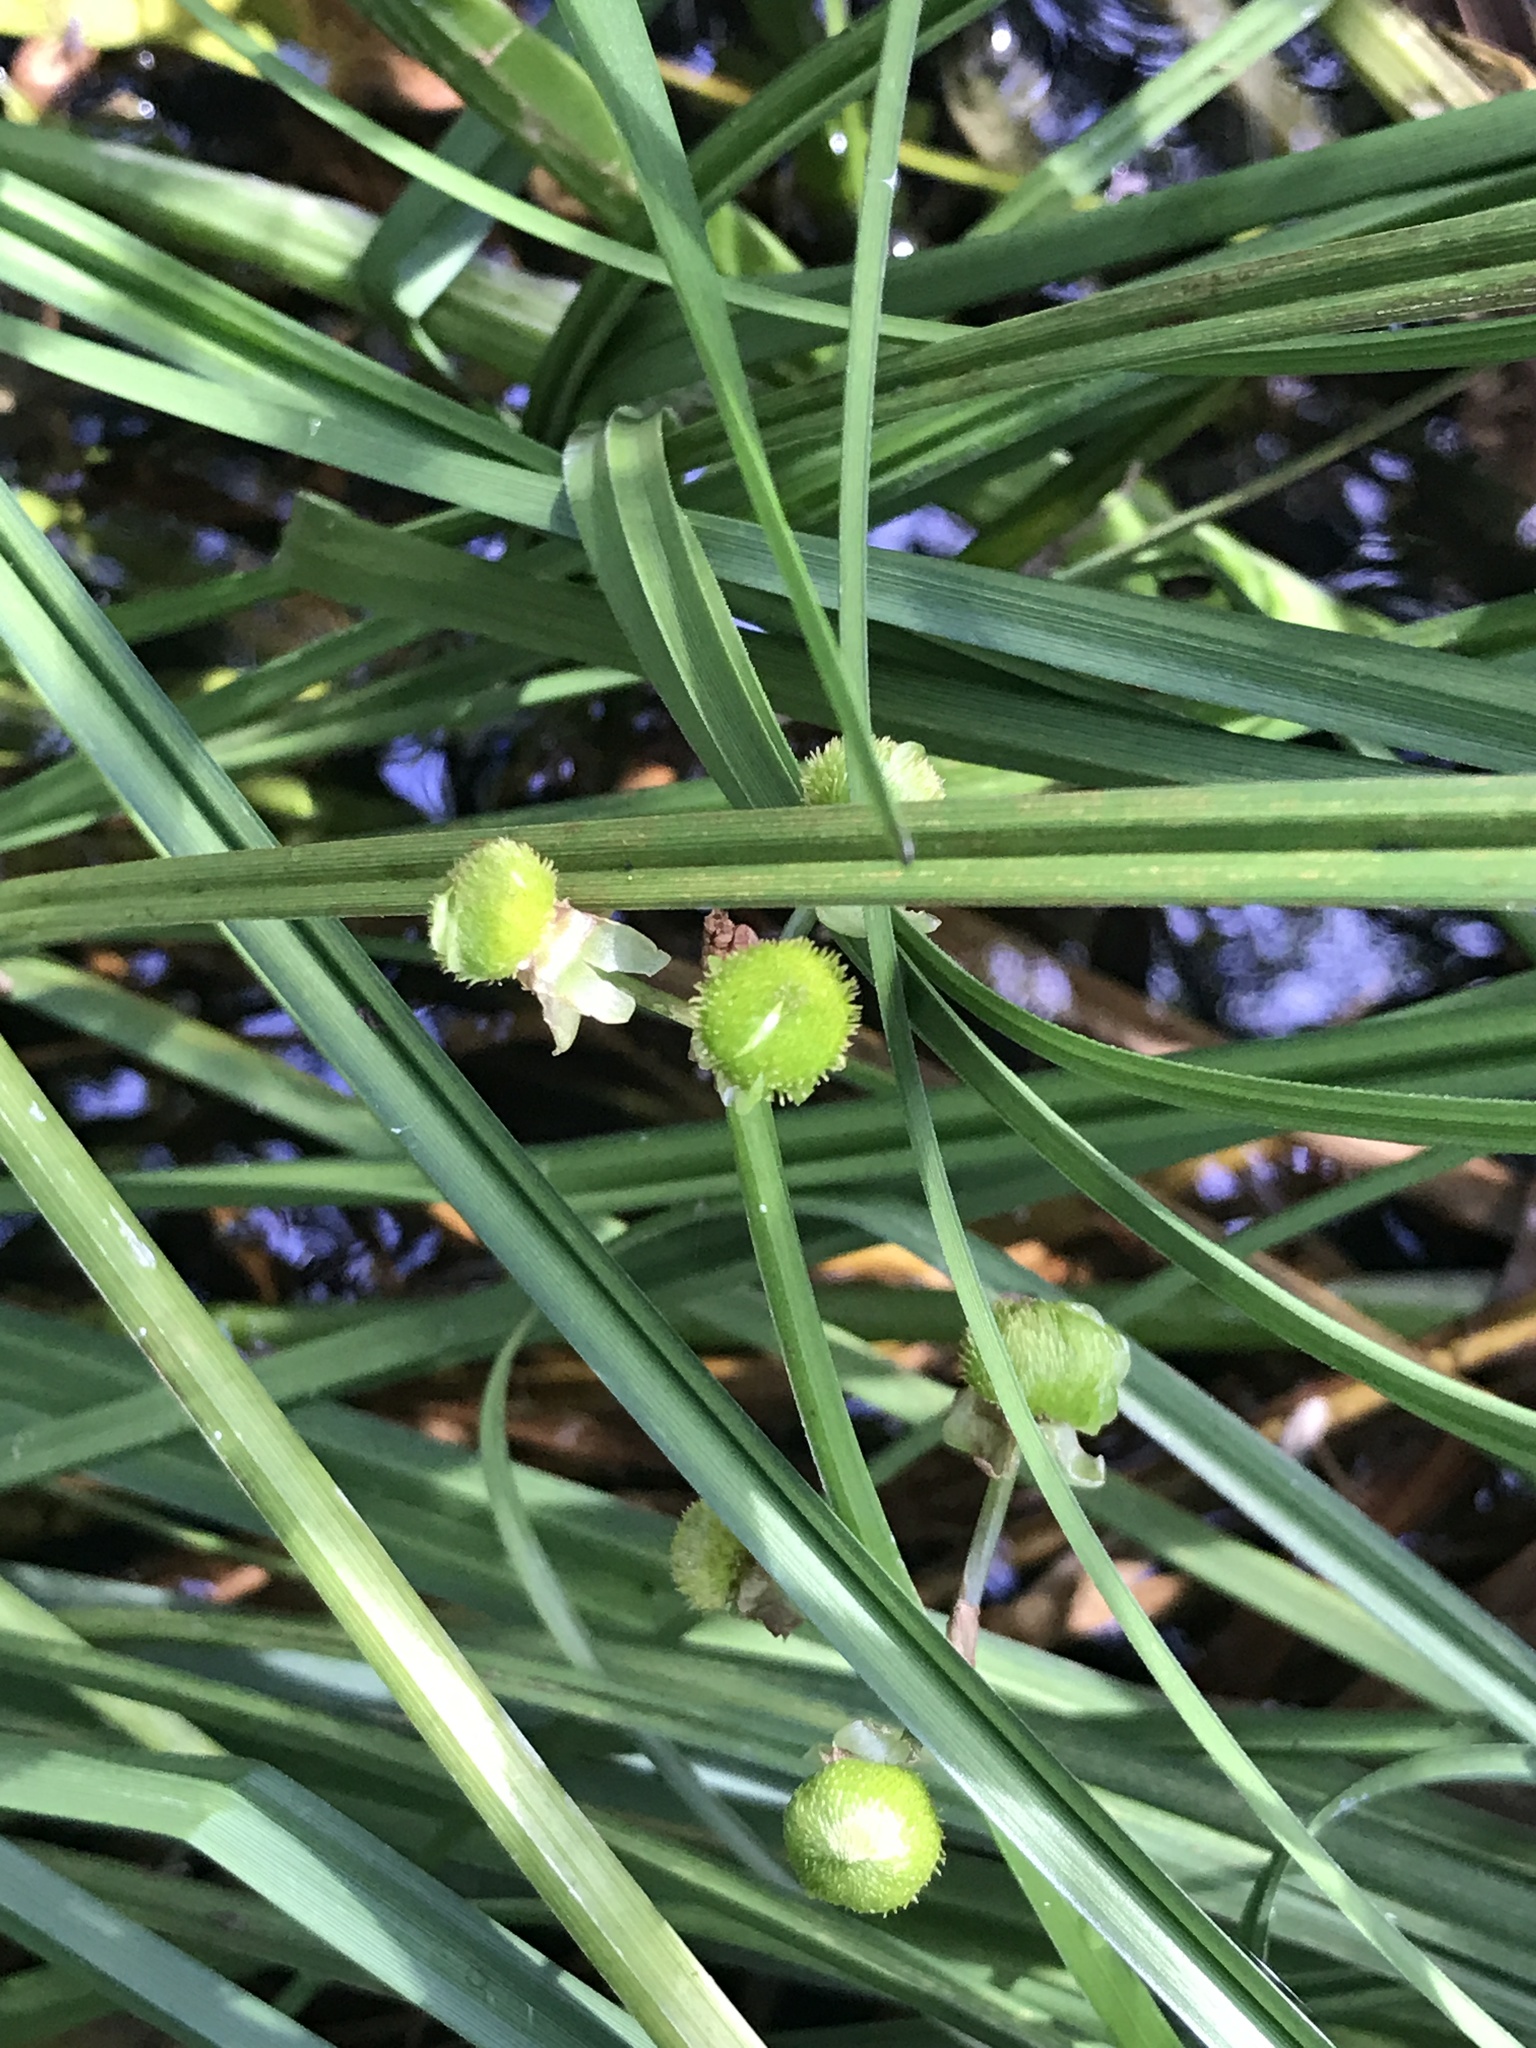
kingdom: Plantae
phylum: Tracheophyta
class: Liliopsida
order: Alismatales
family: Alismataceae
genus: Sagittaria
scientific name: Sagittaria latifolia
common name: Duck-potato
